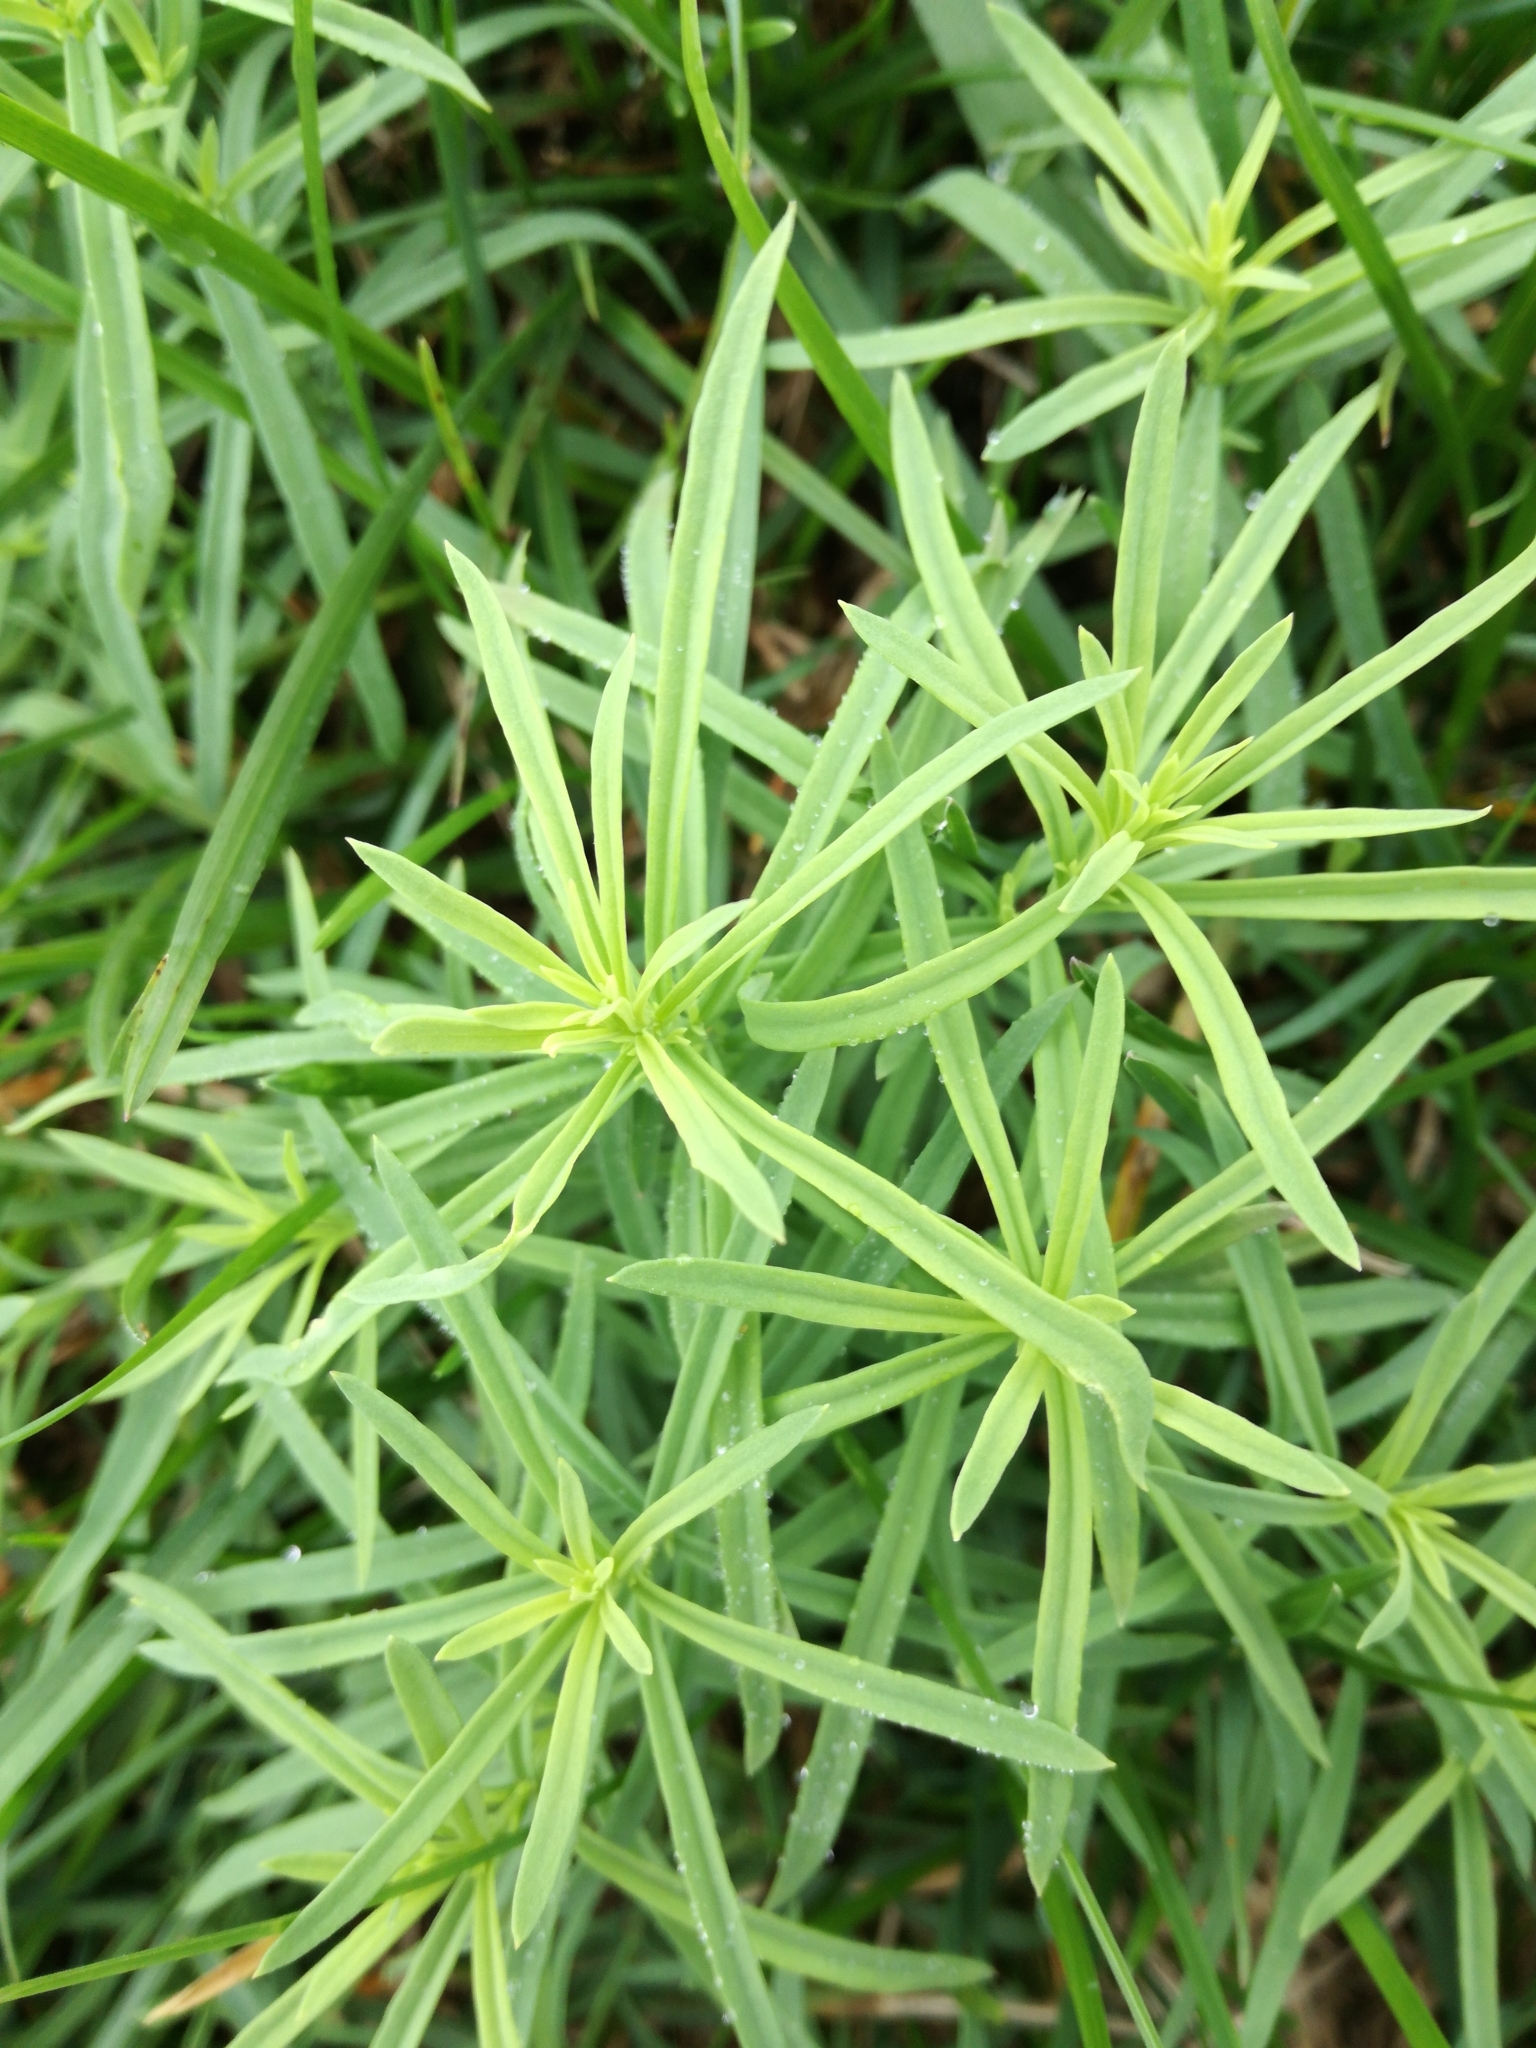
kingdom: Plantae
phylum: Tracheophyta
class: Magnoliopsida
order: Lamiales
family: Plantaginaceae
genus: Linaria
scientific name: Linaria vulgaris
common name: Butter and eggs
